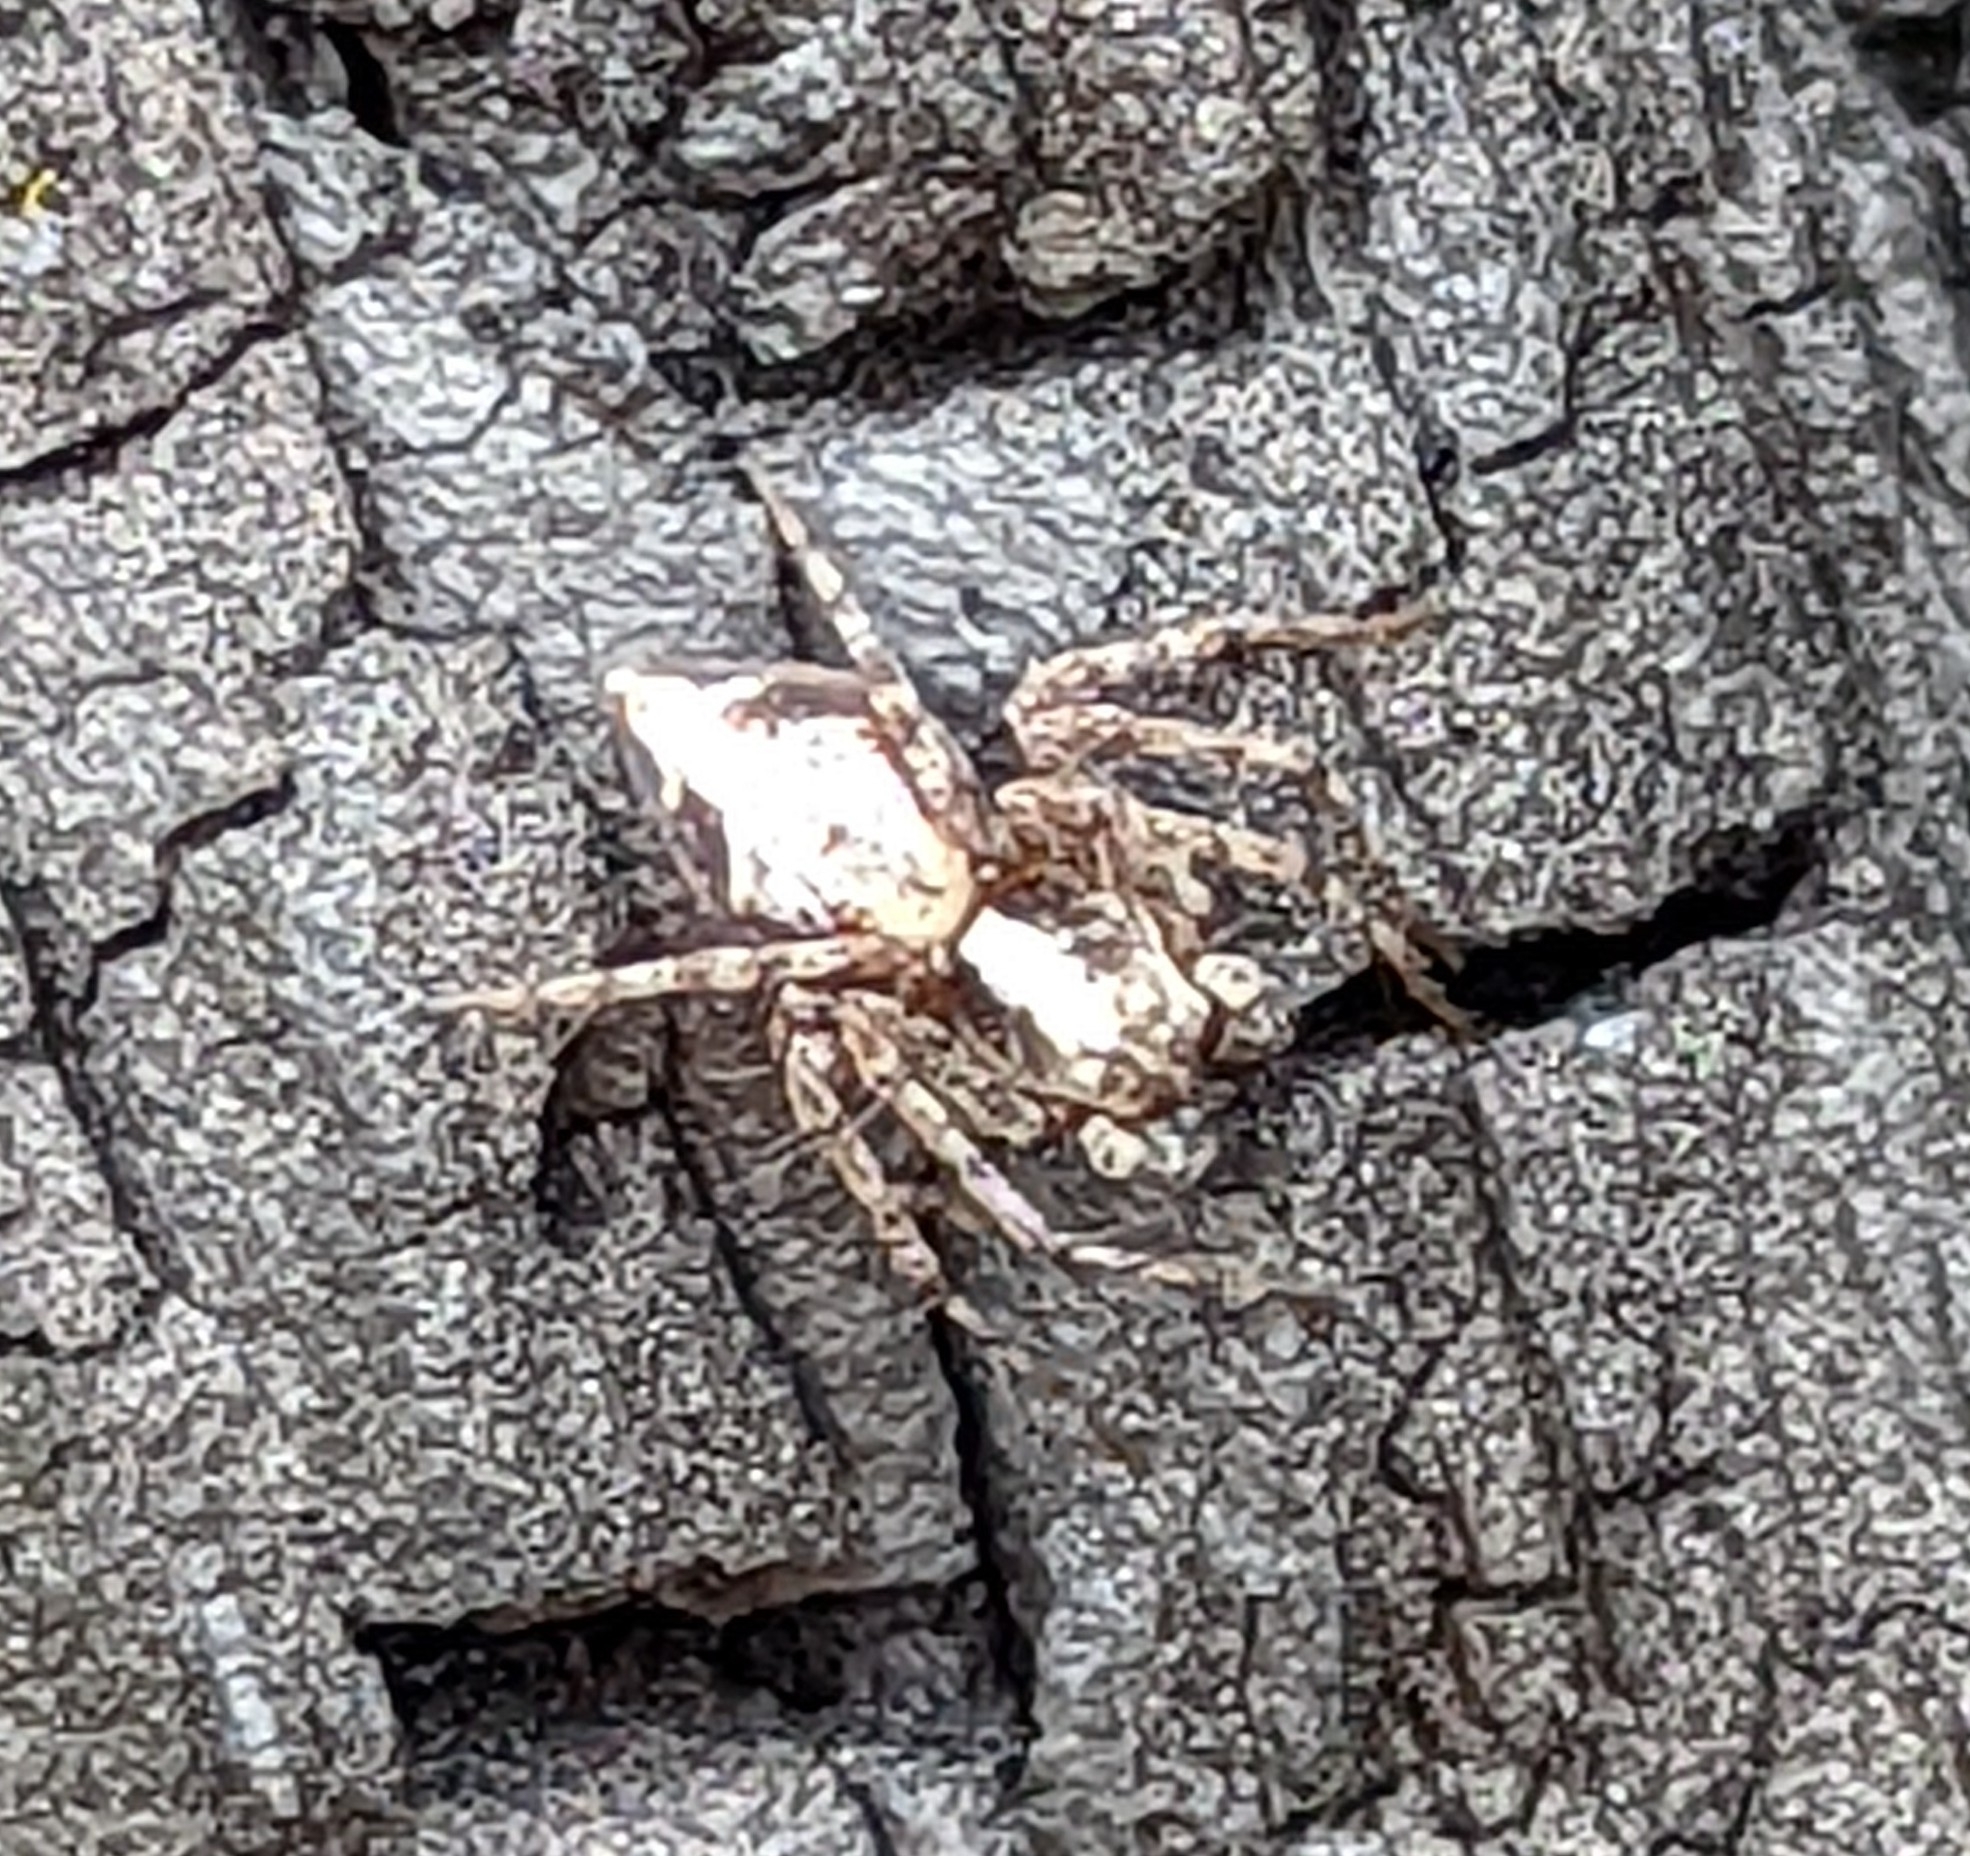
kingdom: Animalia
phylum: Arthropoda
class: Arachnida
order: Araneae
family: Oxyopidae
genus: Oxyopes
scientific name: Oxyopes scalaris
